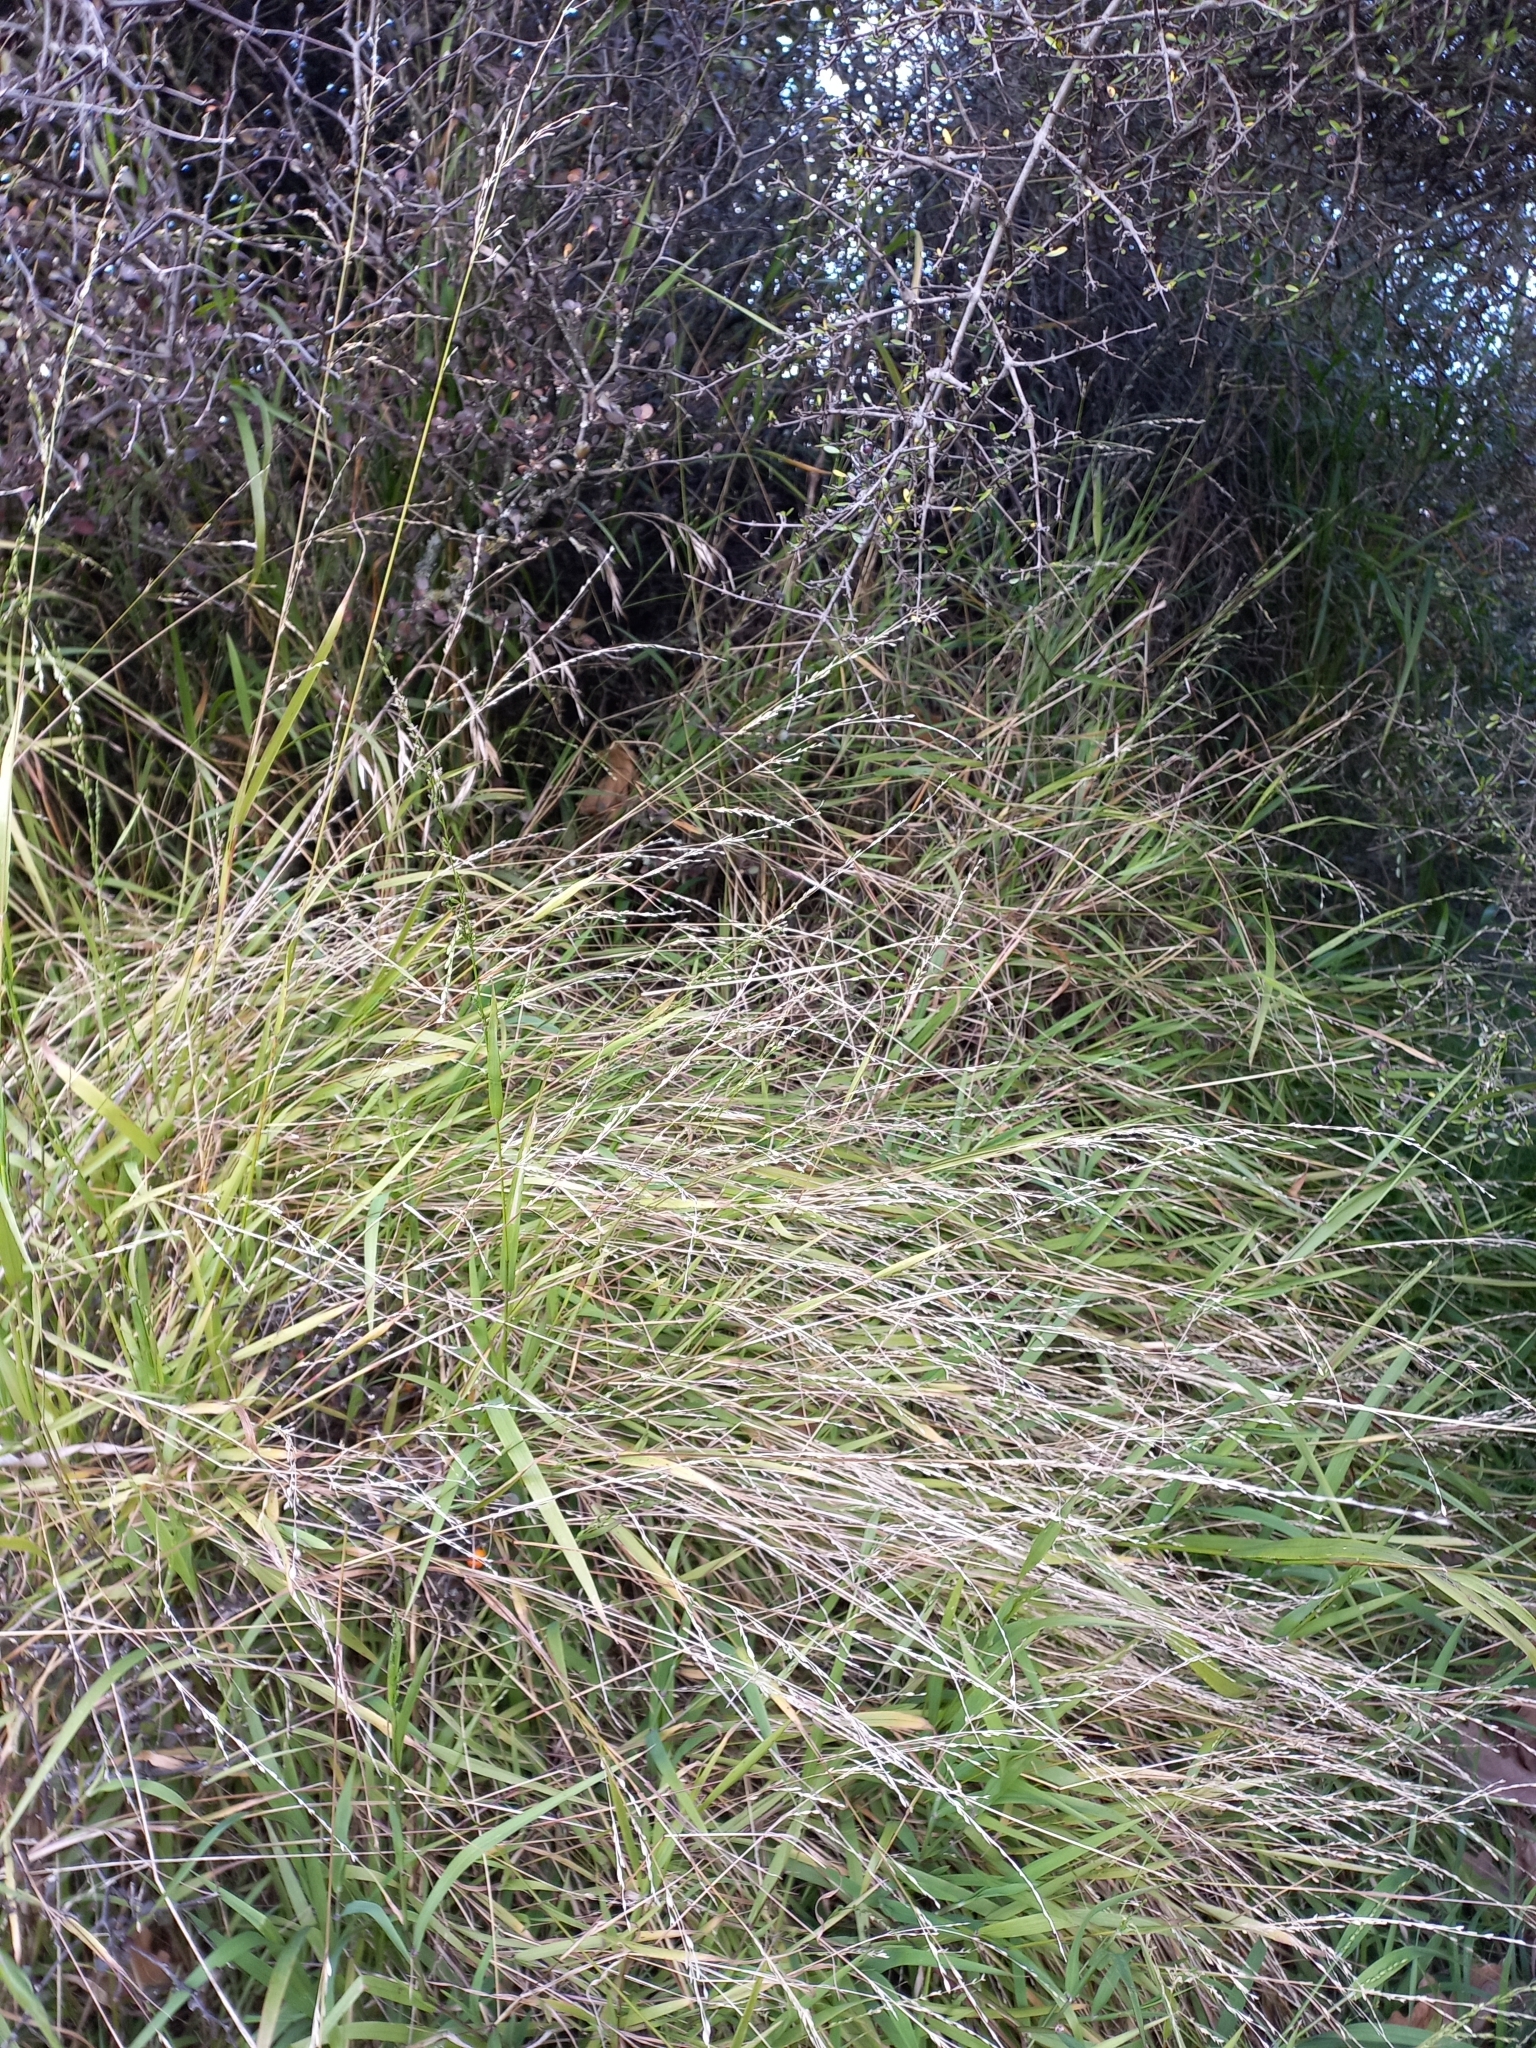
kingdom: Plantae
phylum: Tracheophyta
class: Liliopsida
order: Poales
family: Poaceae
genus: Ehrharta
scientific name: Ehrharta erecta
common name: Panic veldtgrass
